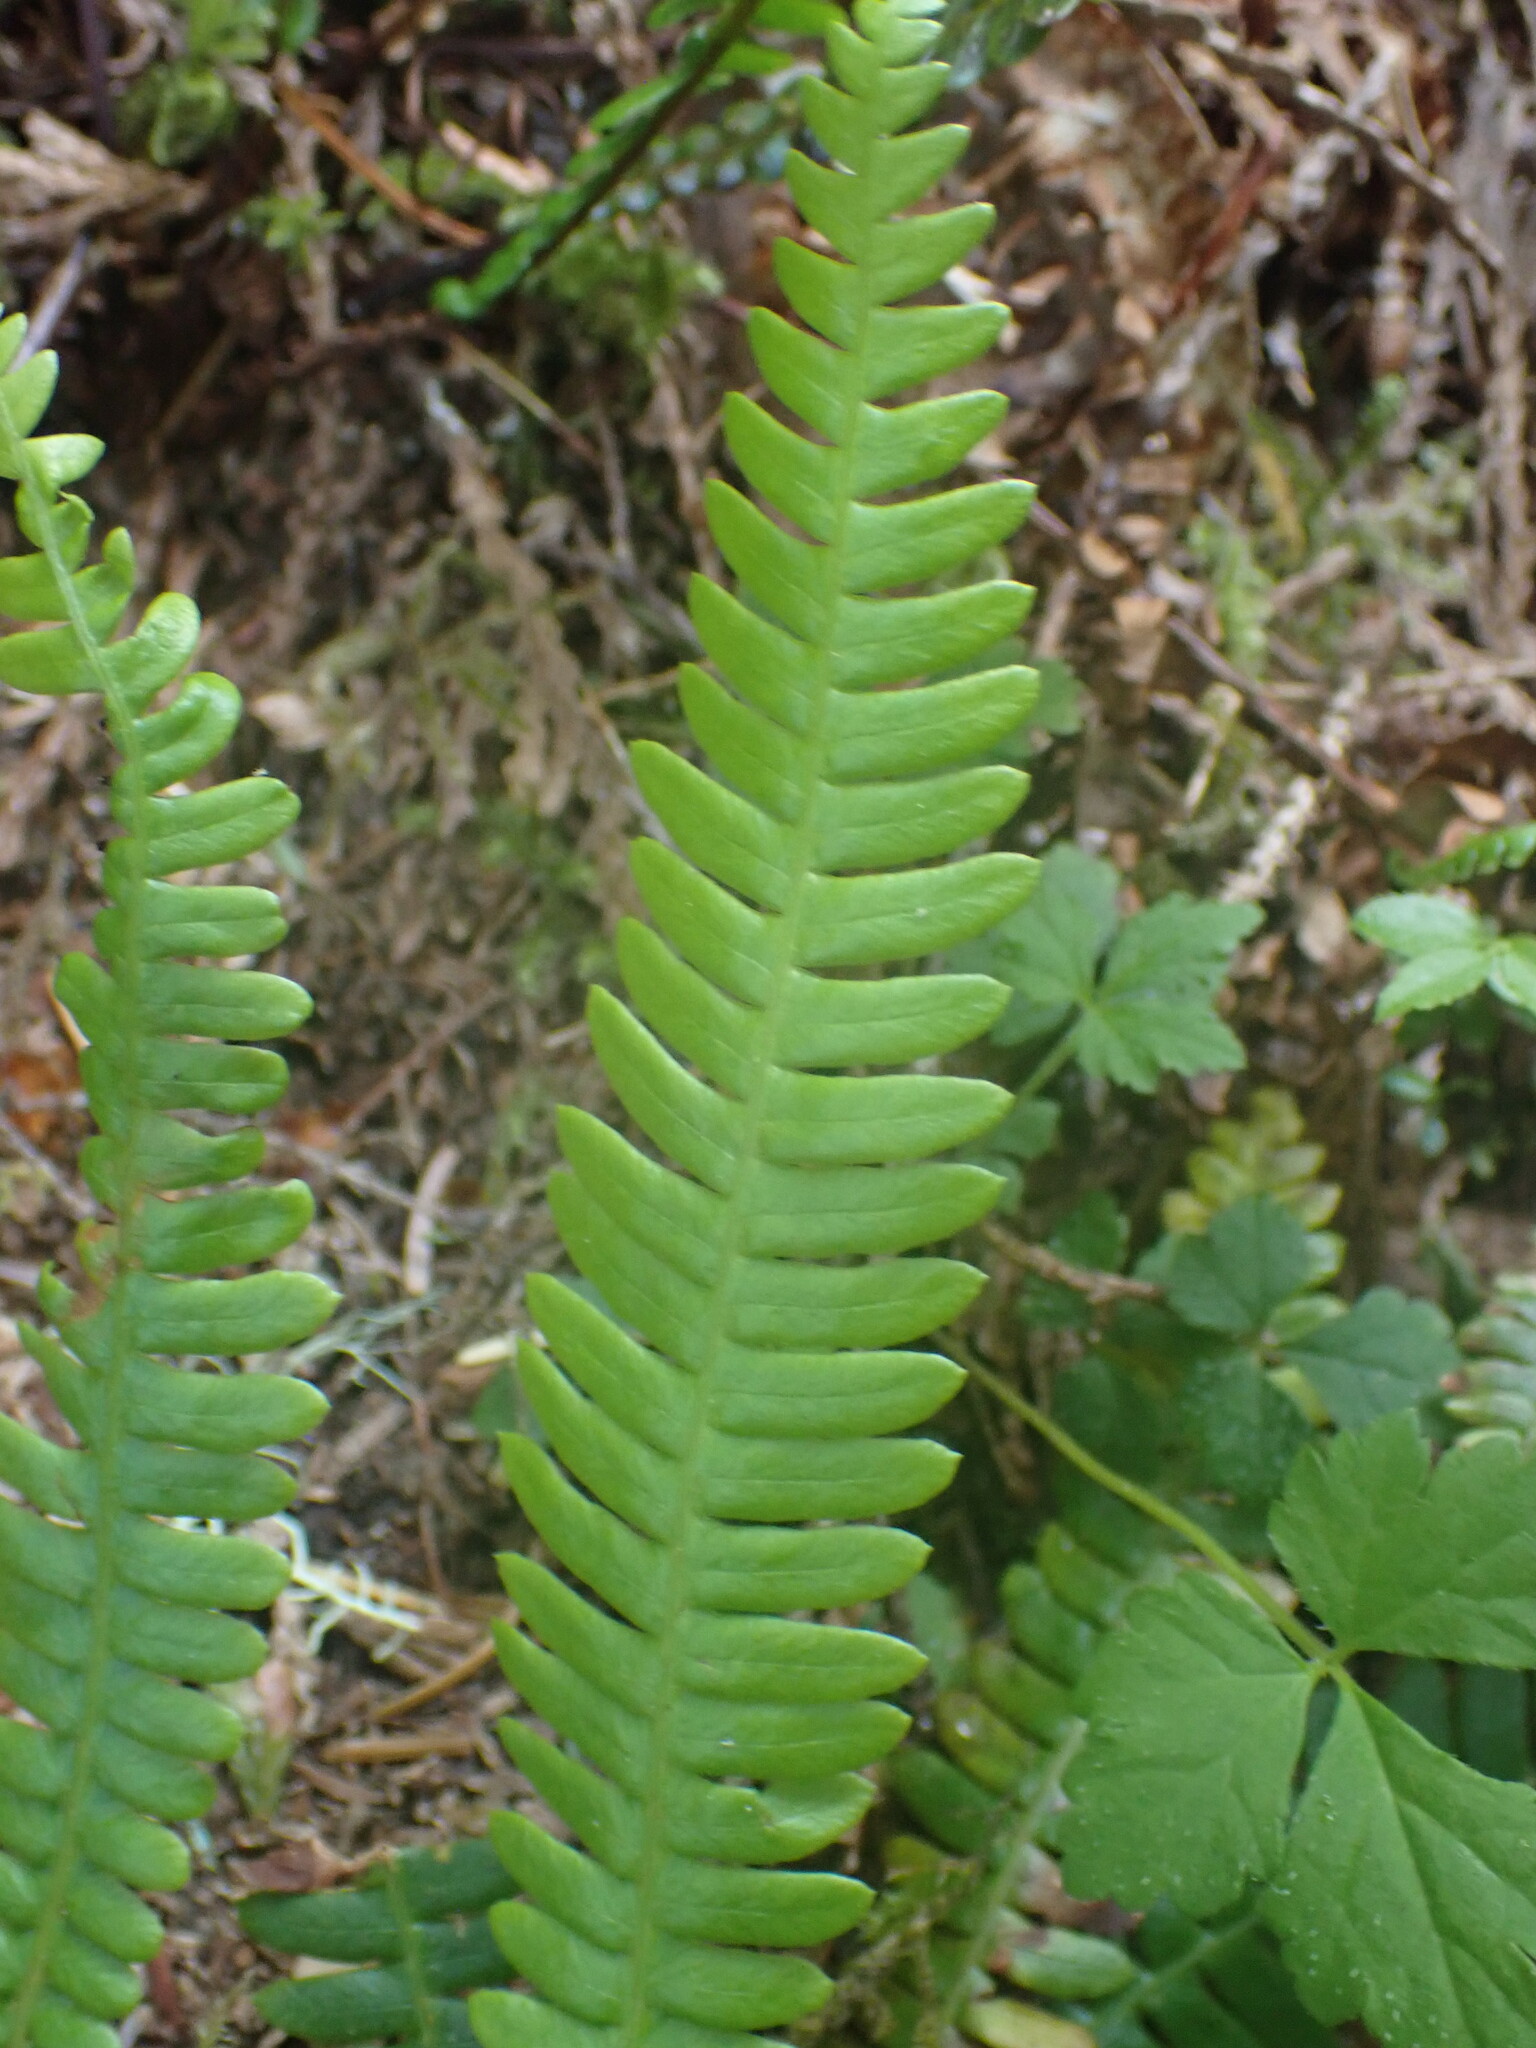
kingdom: Plantae
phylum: Tracheophyta
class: Polypodiopsida
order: Polypodiales
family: Blechnaceae
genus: Struthiopteris
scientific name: Struthiopteris spicant
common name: Deer fern
